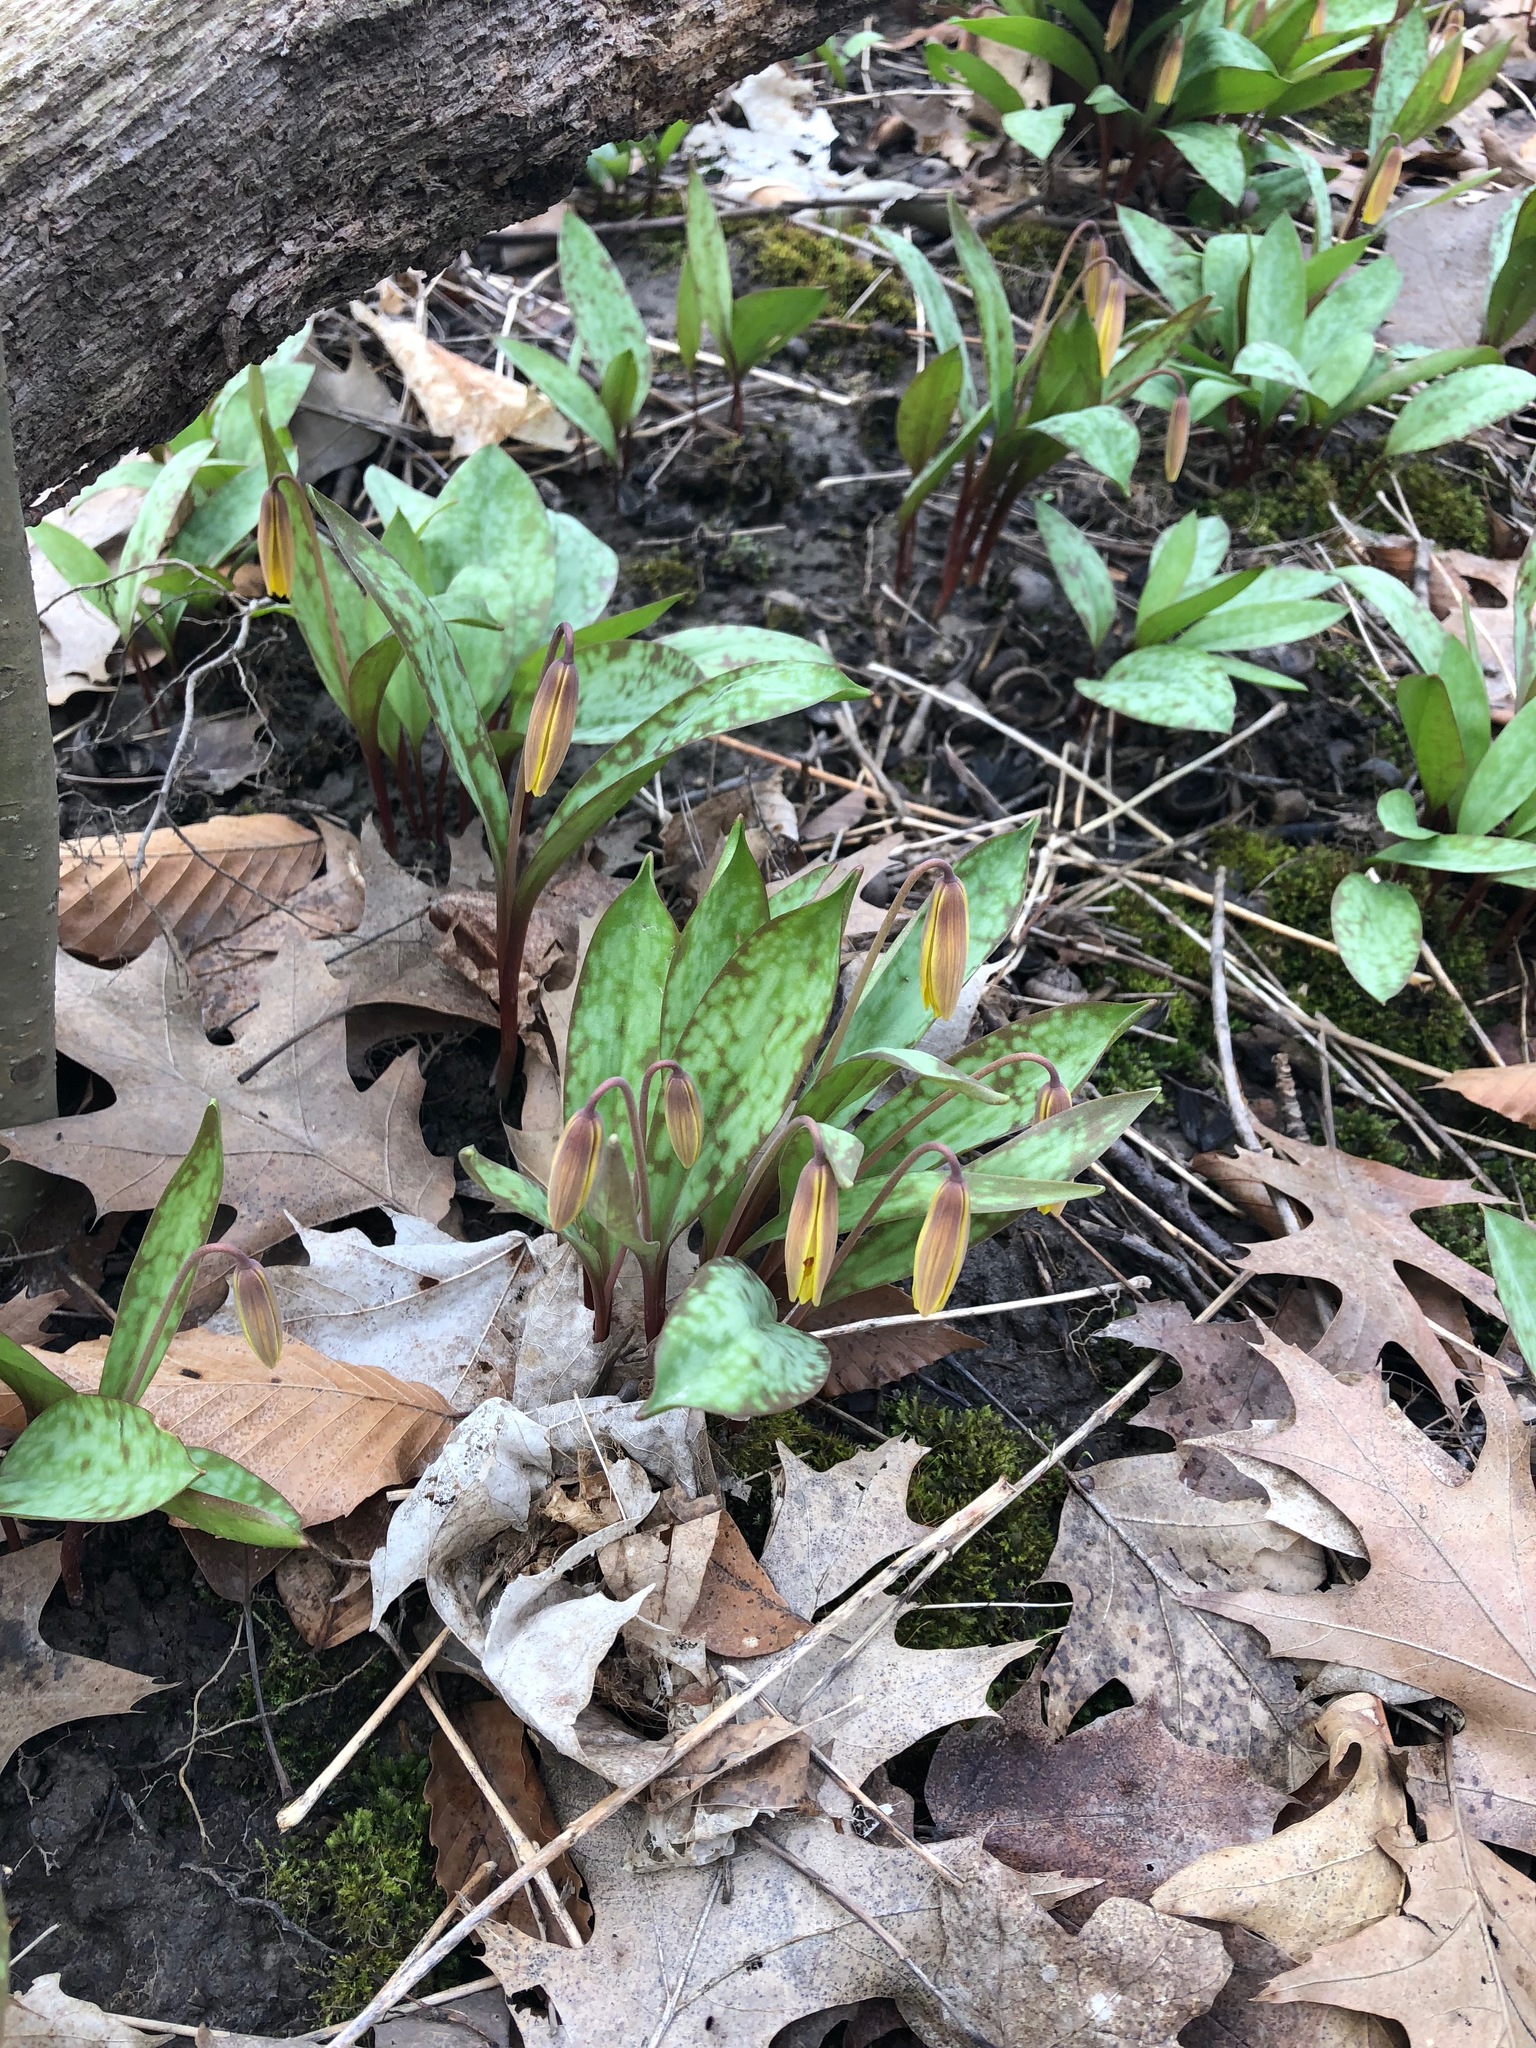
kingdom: Plantae
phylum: Tracheophyta
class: Liliopsida
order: Liliales
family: Liliaceae
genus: Erythronium
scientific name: Erythronium americanum
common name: Yellow adder's-tongue
